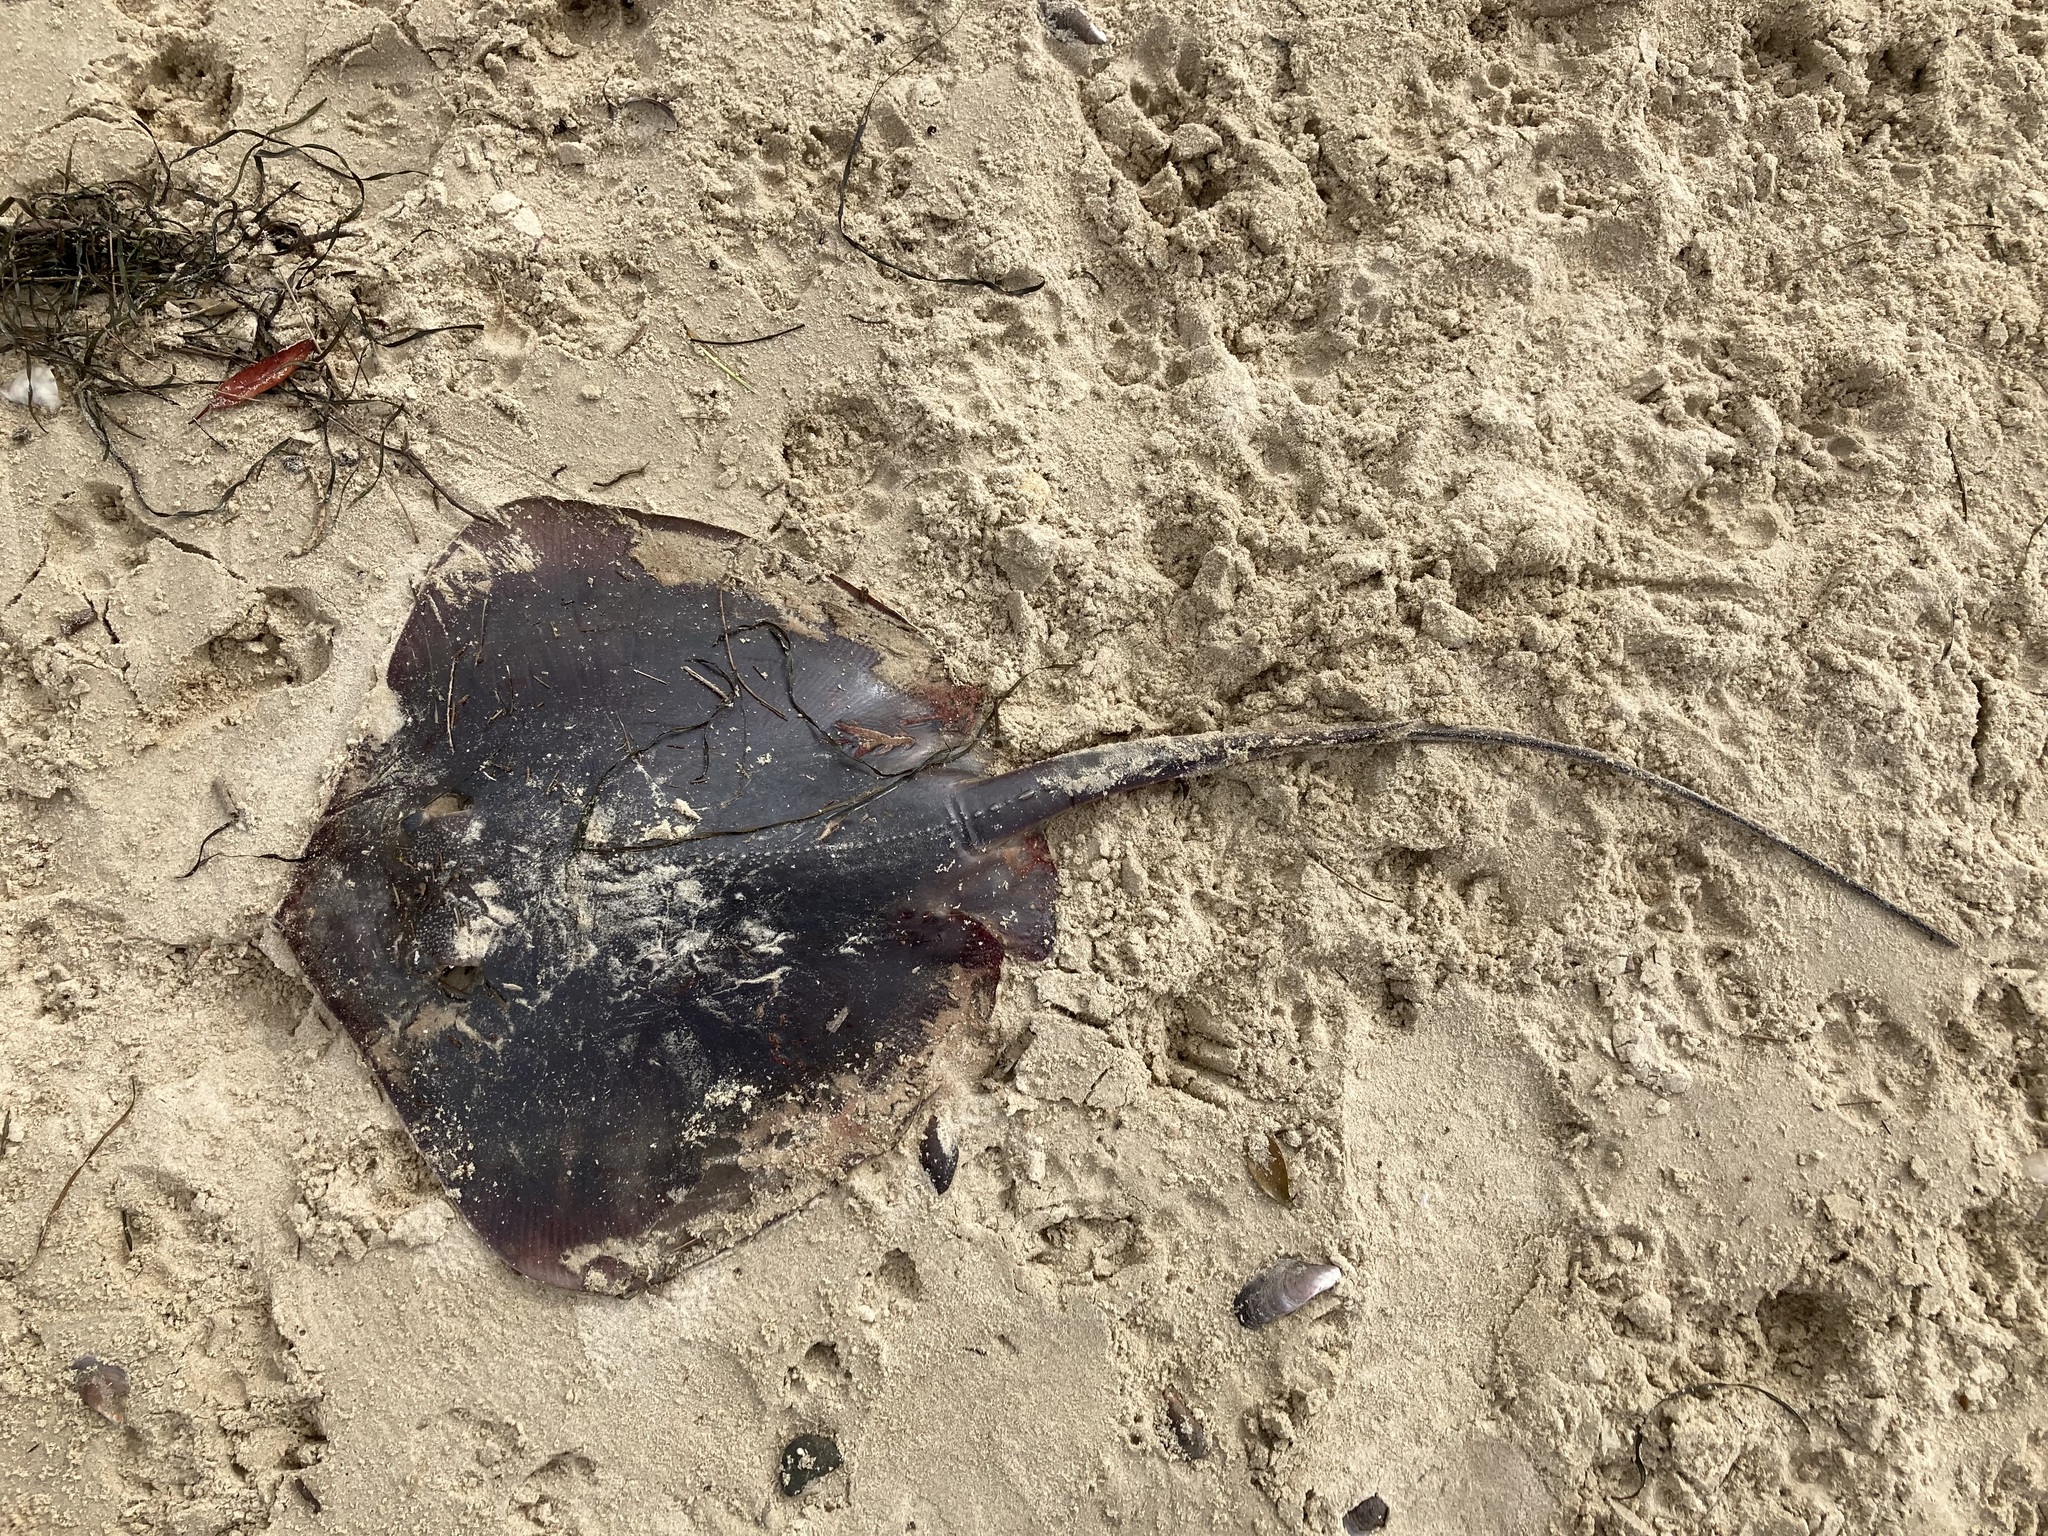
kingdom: Animalia
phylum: Chordata
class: Elasmobranchii
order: Myliobatiformes
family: Dasyatidae
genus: Hemitrygon
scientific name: Hemitrygon fluviorum
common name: Estuary stingray
